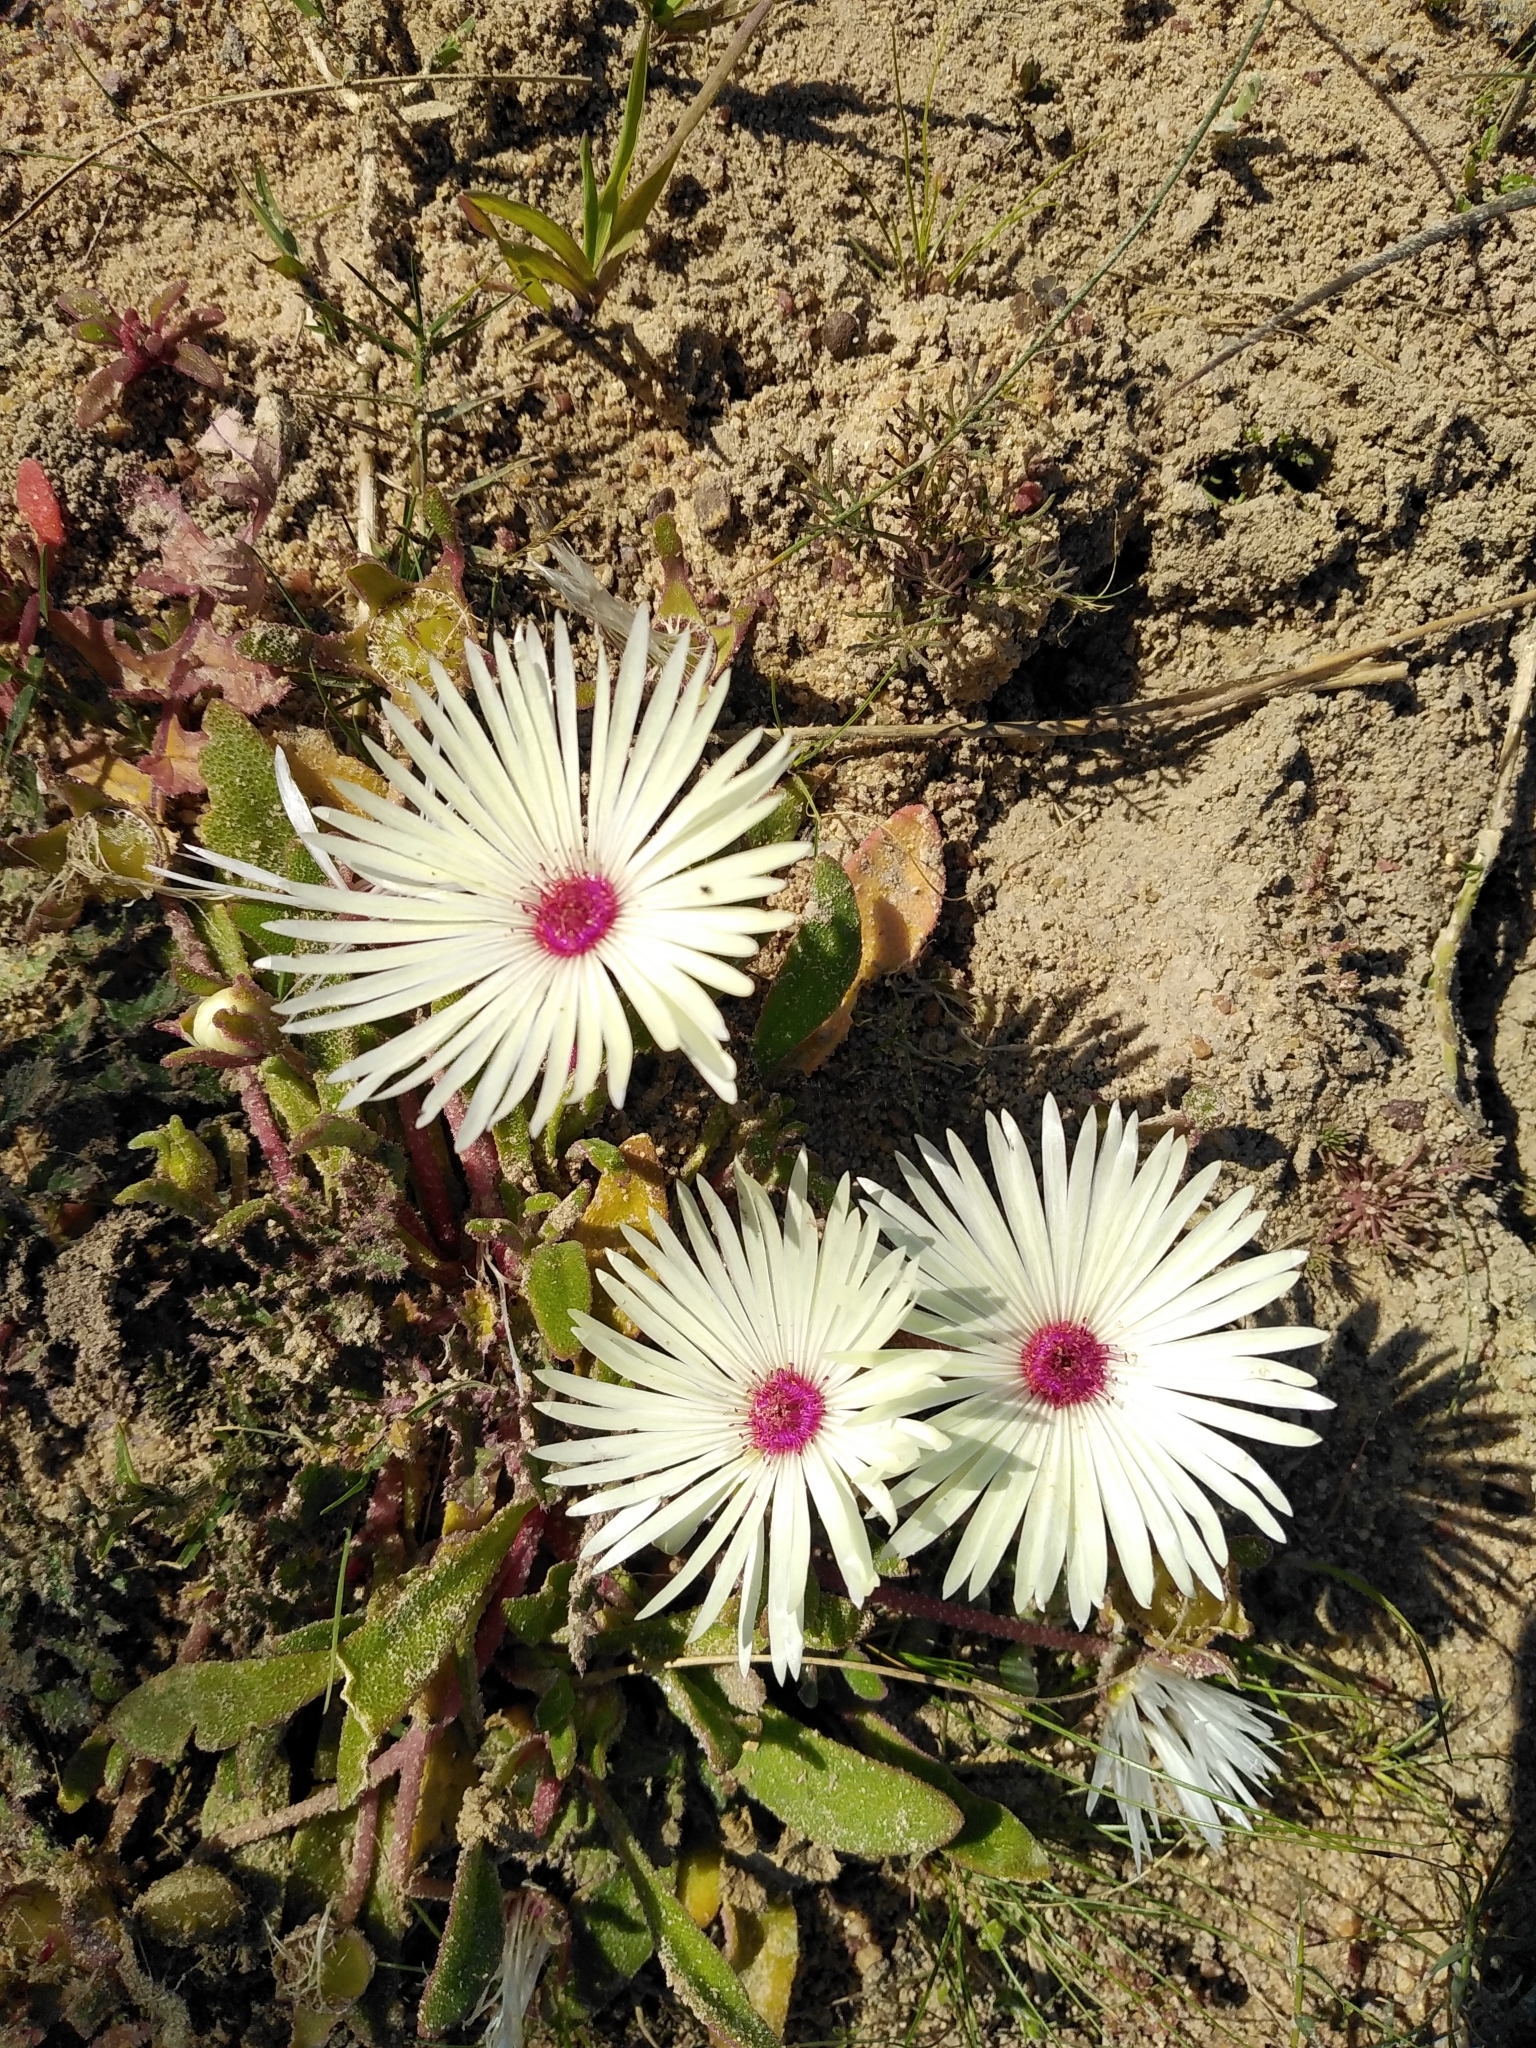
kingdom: Plantae
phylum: Tracheophyta
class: Magnoliopsida
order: Caryophyllales
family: Aizoaceae
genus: Cleretum
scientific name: Cleretum bellidiforme
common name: Livingstone daisy
